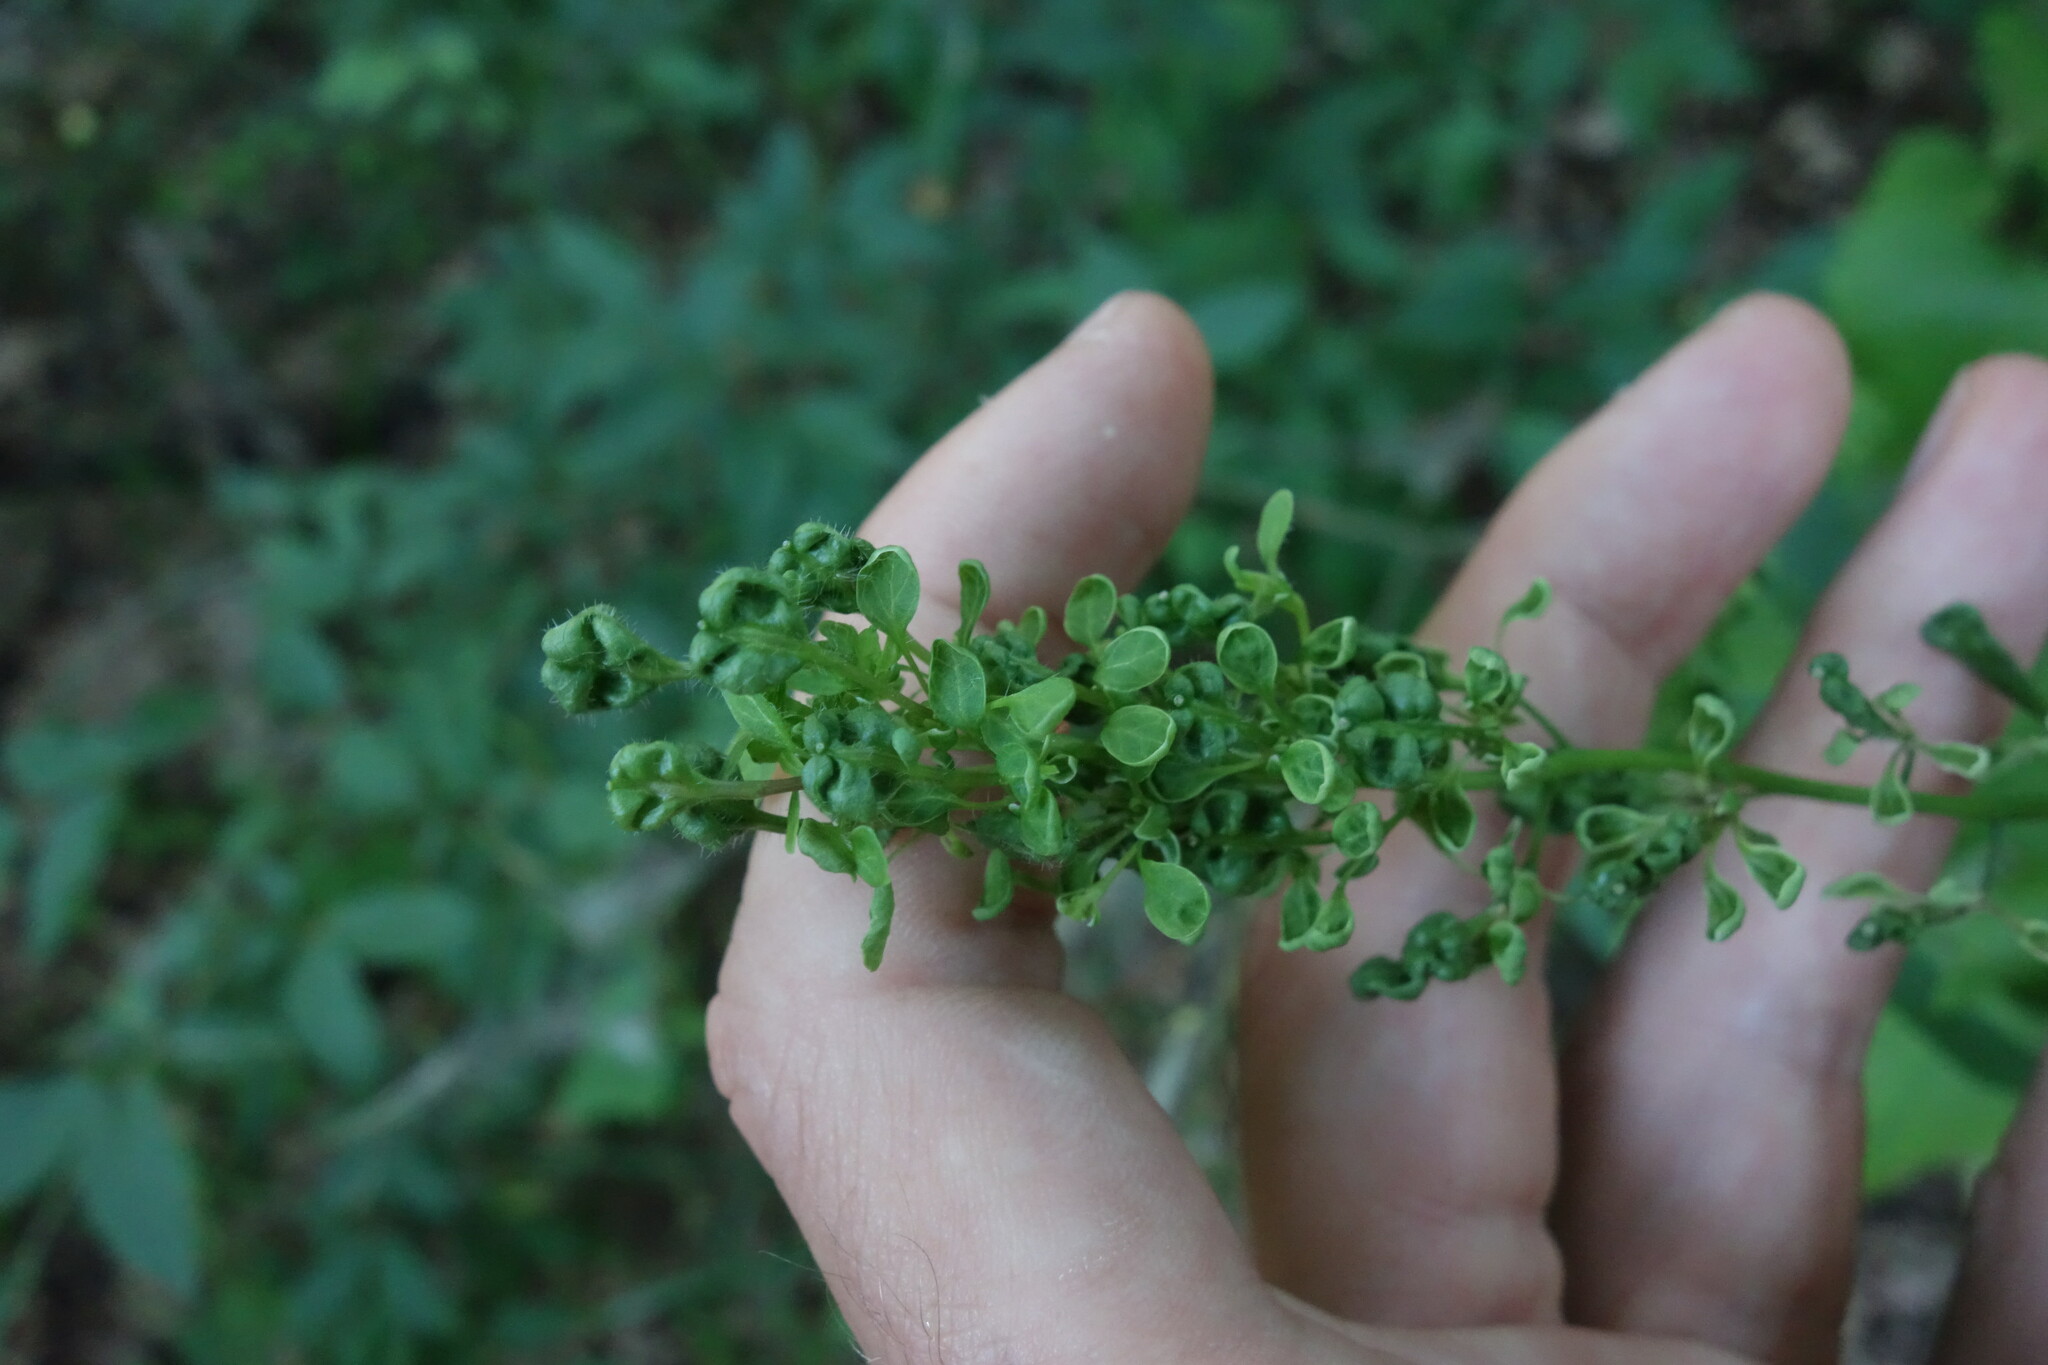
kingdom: Plantae
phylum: Tracheophyta
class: Magnoliopsida
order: Brassicales
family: Brassicaceae
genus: Alliaria
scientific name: Alliaria petiolata
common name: Garlic mustard
